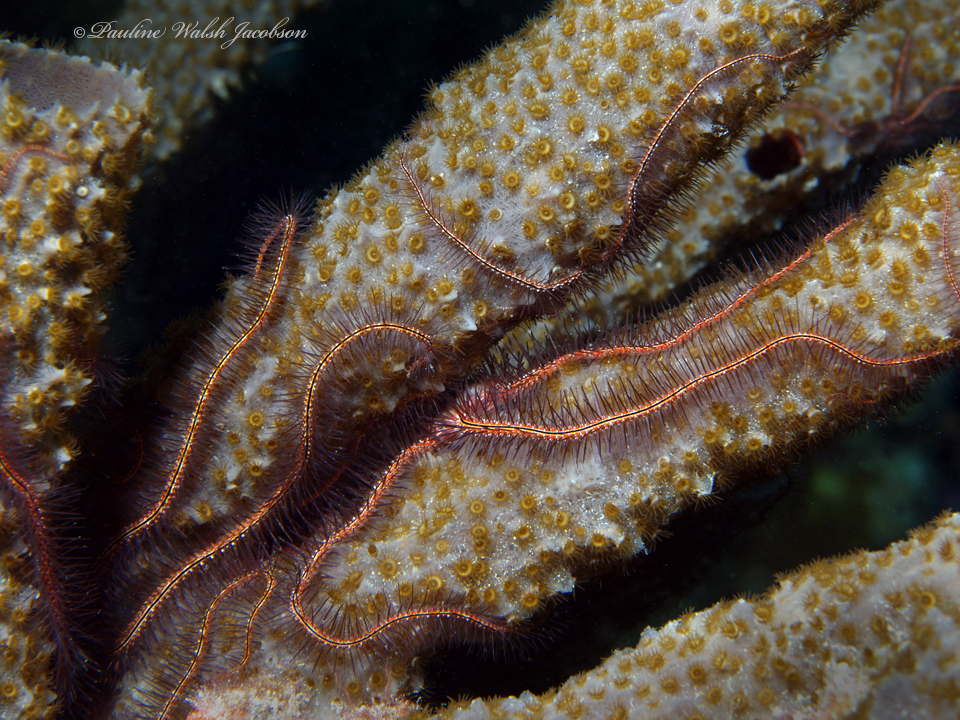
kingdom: Animalia
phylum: Echinodermata
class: Ophiuroidea
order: Amphilepidida
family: Ophiotrichidae
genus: Ophiothrix
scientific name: Ophiothrix suensonii
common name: Sponge brittle star
